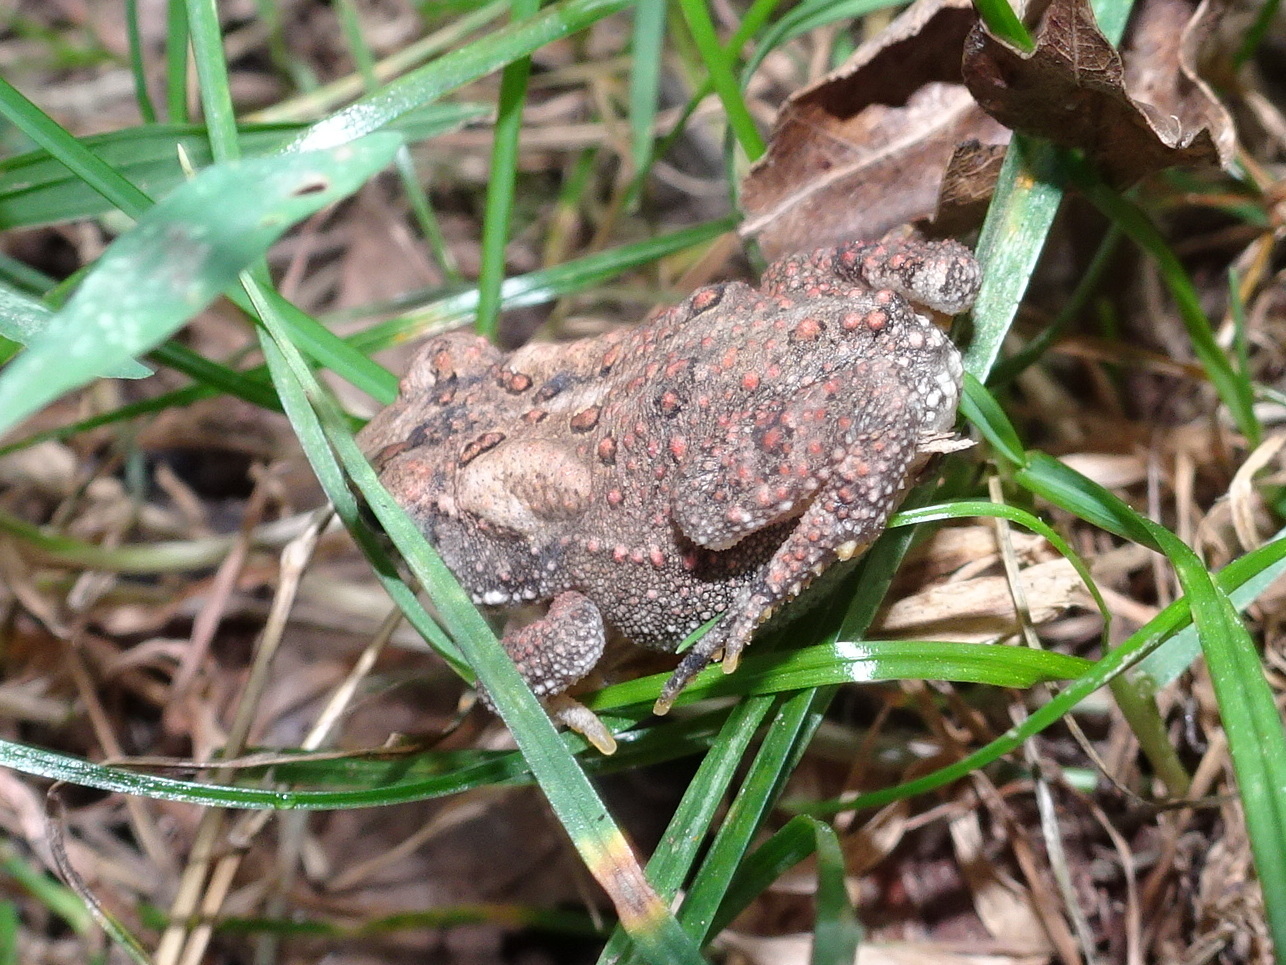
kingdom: Animalia
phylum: Chordata
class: Amphibia
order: Anura
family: Bufonidae
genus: Anaxyrus
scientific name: Anaxyrus americanus
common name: American toad
